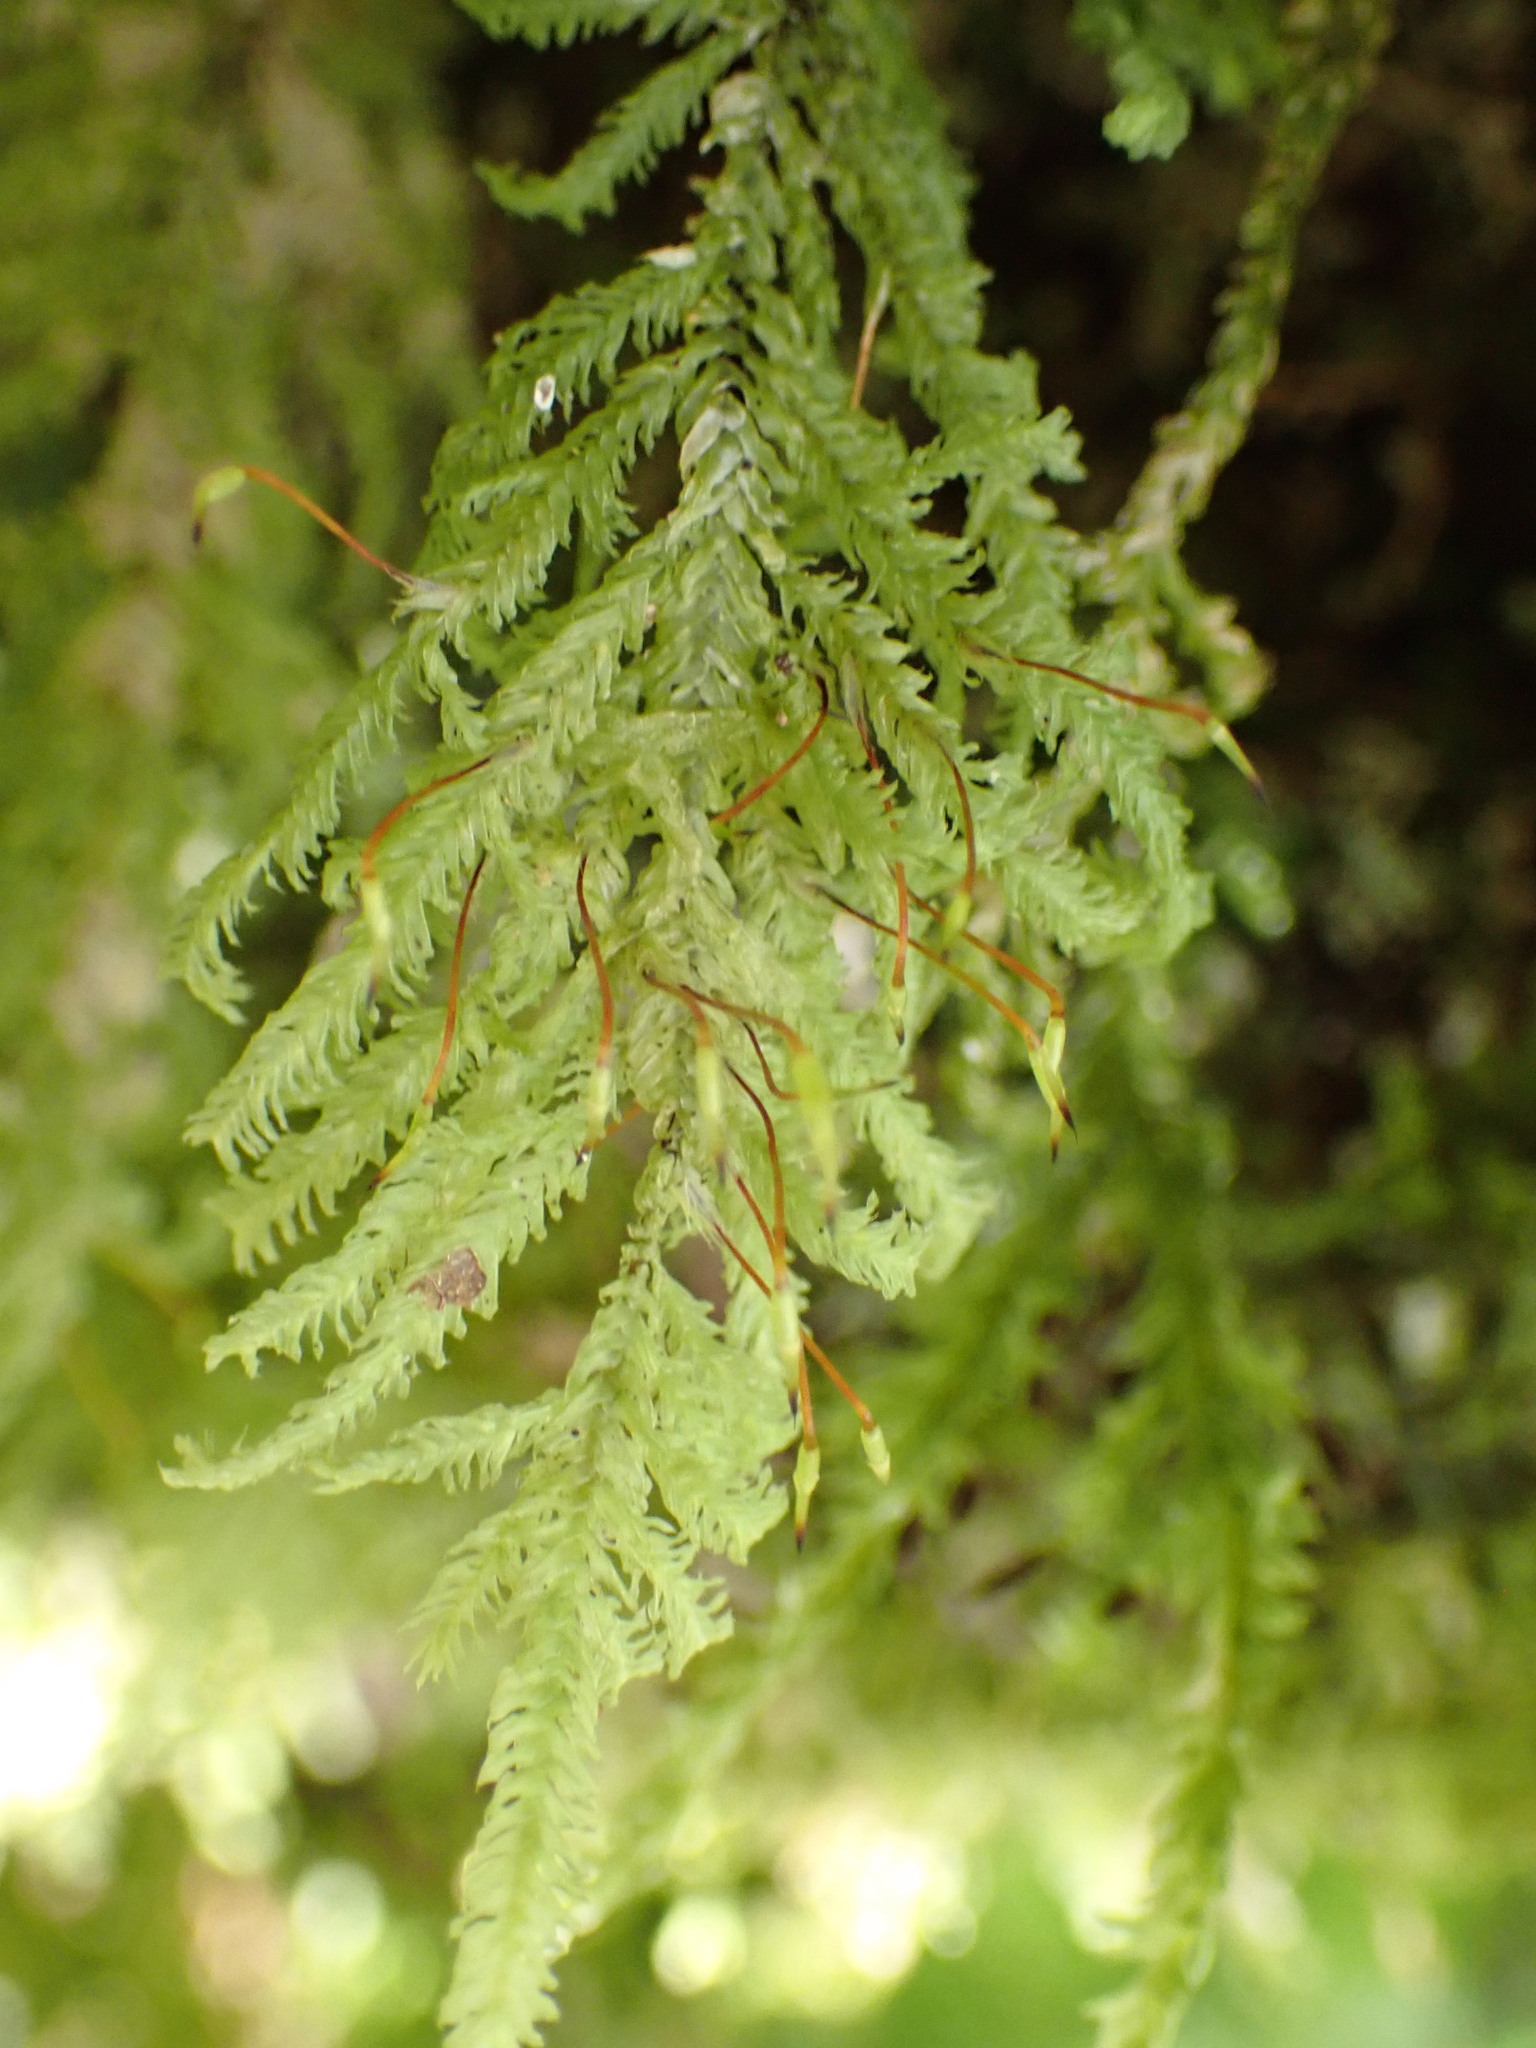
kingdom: Plantae
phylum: Bryophyta
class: Bryopsida
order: Hypopterygiales
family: Hypopterygiaceae
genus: Lopidium
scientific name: Lopidium concinnum
